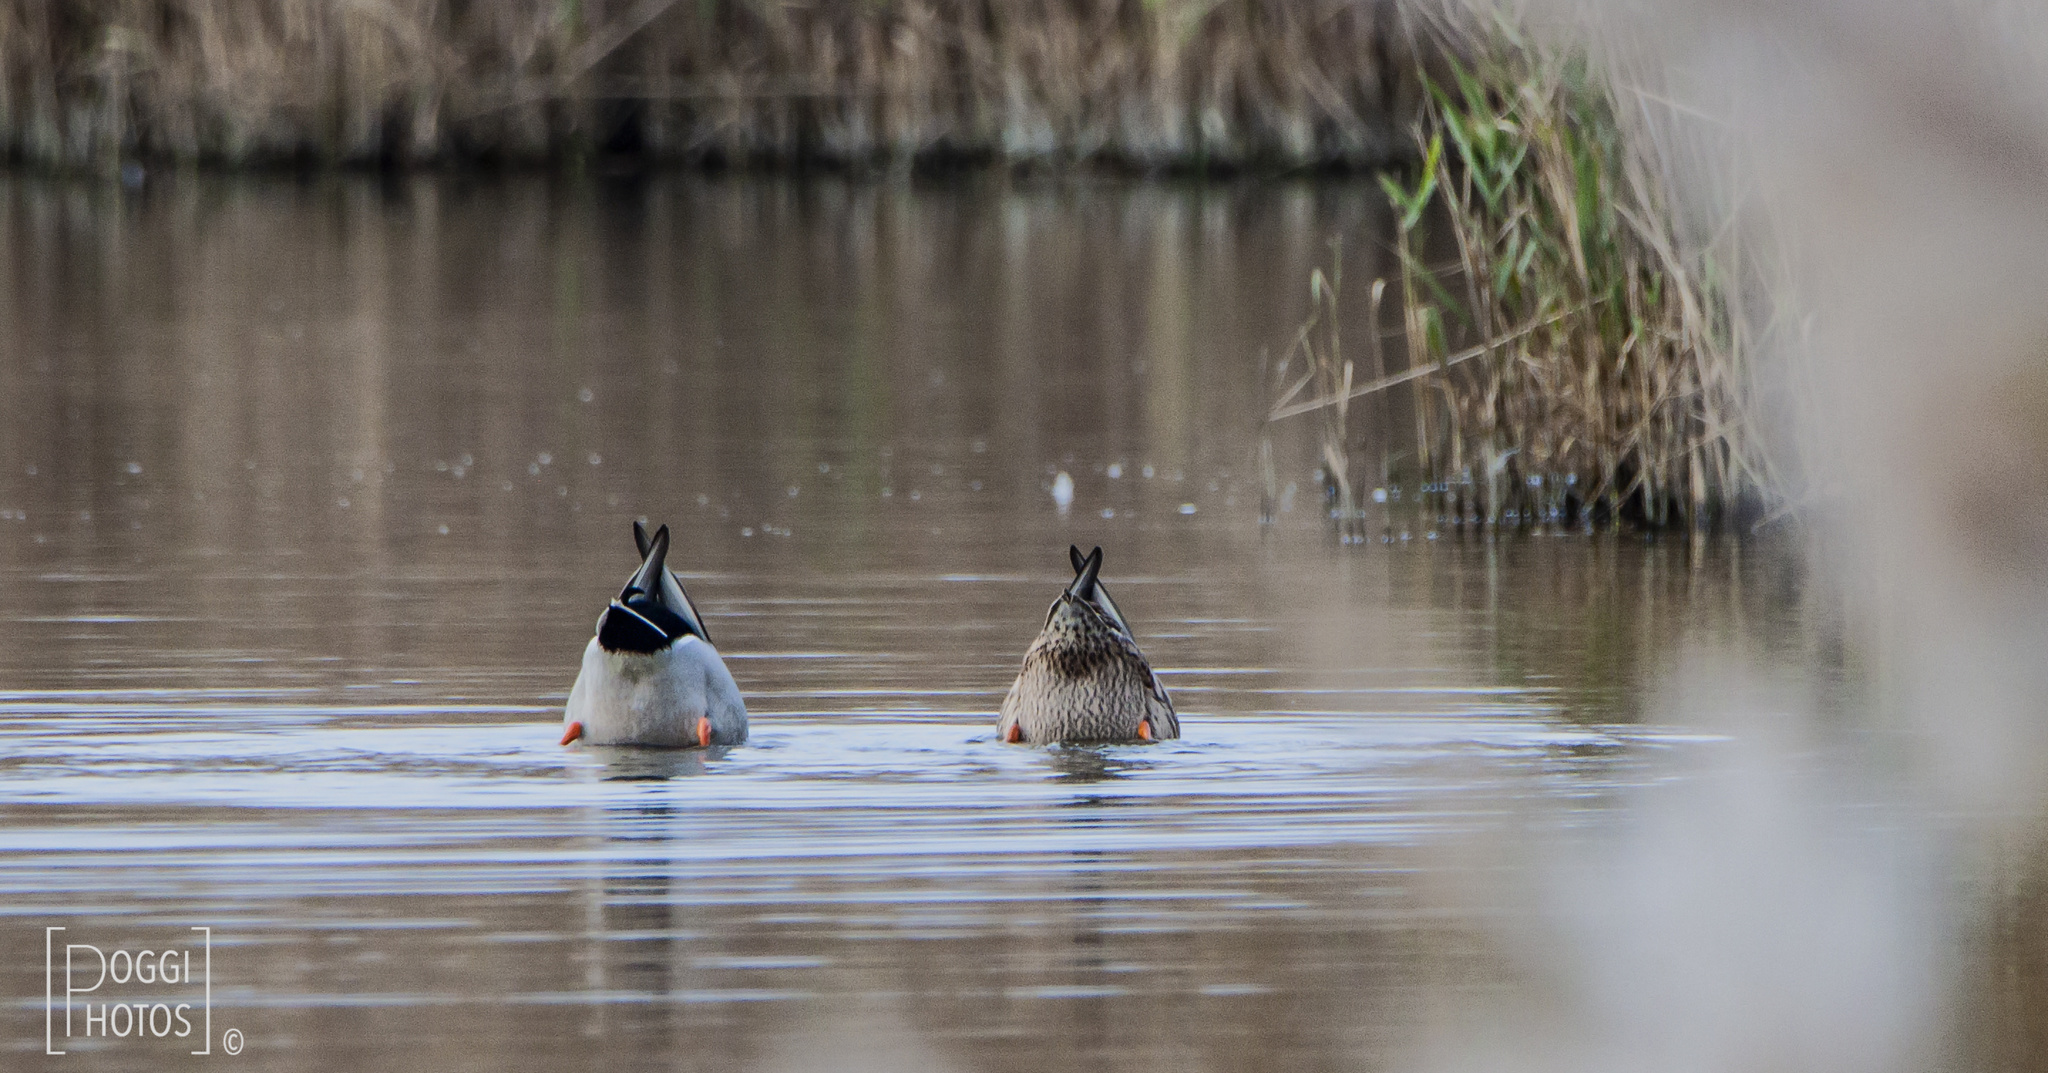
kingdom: Animalia
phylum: Chordata
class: Aves
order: Anseriformes
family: Anatidae
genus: Anas
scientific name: Anas platyrhynchos
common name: Mallard
